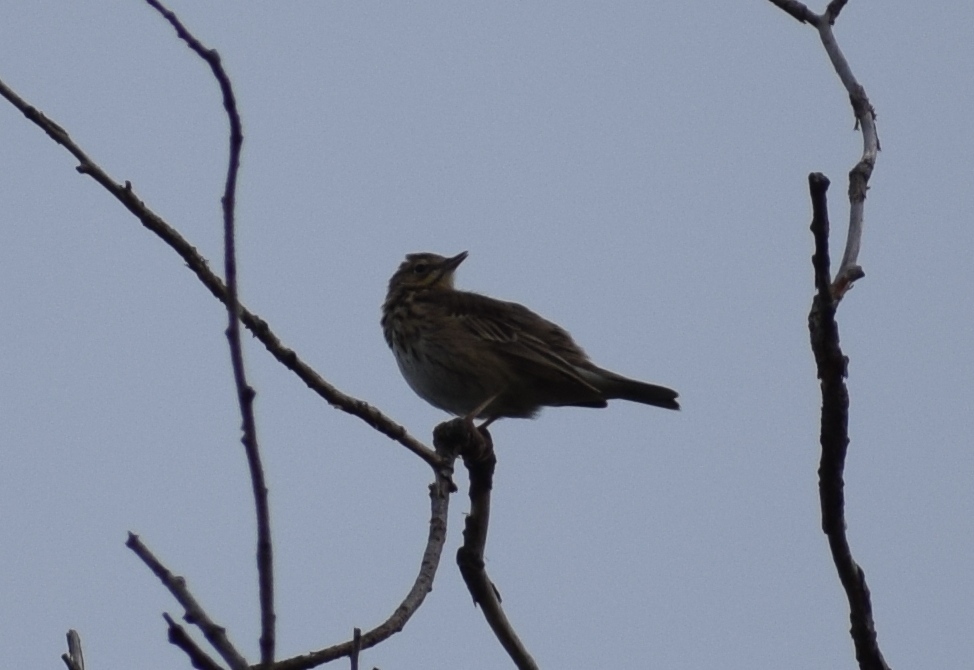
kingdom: Animalia
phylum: Chordata
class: Aves
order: Passeriformes
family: Motacillidae
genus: Anthus
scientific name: Anthus trivialis
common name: Tree pipit
